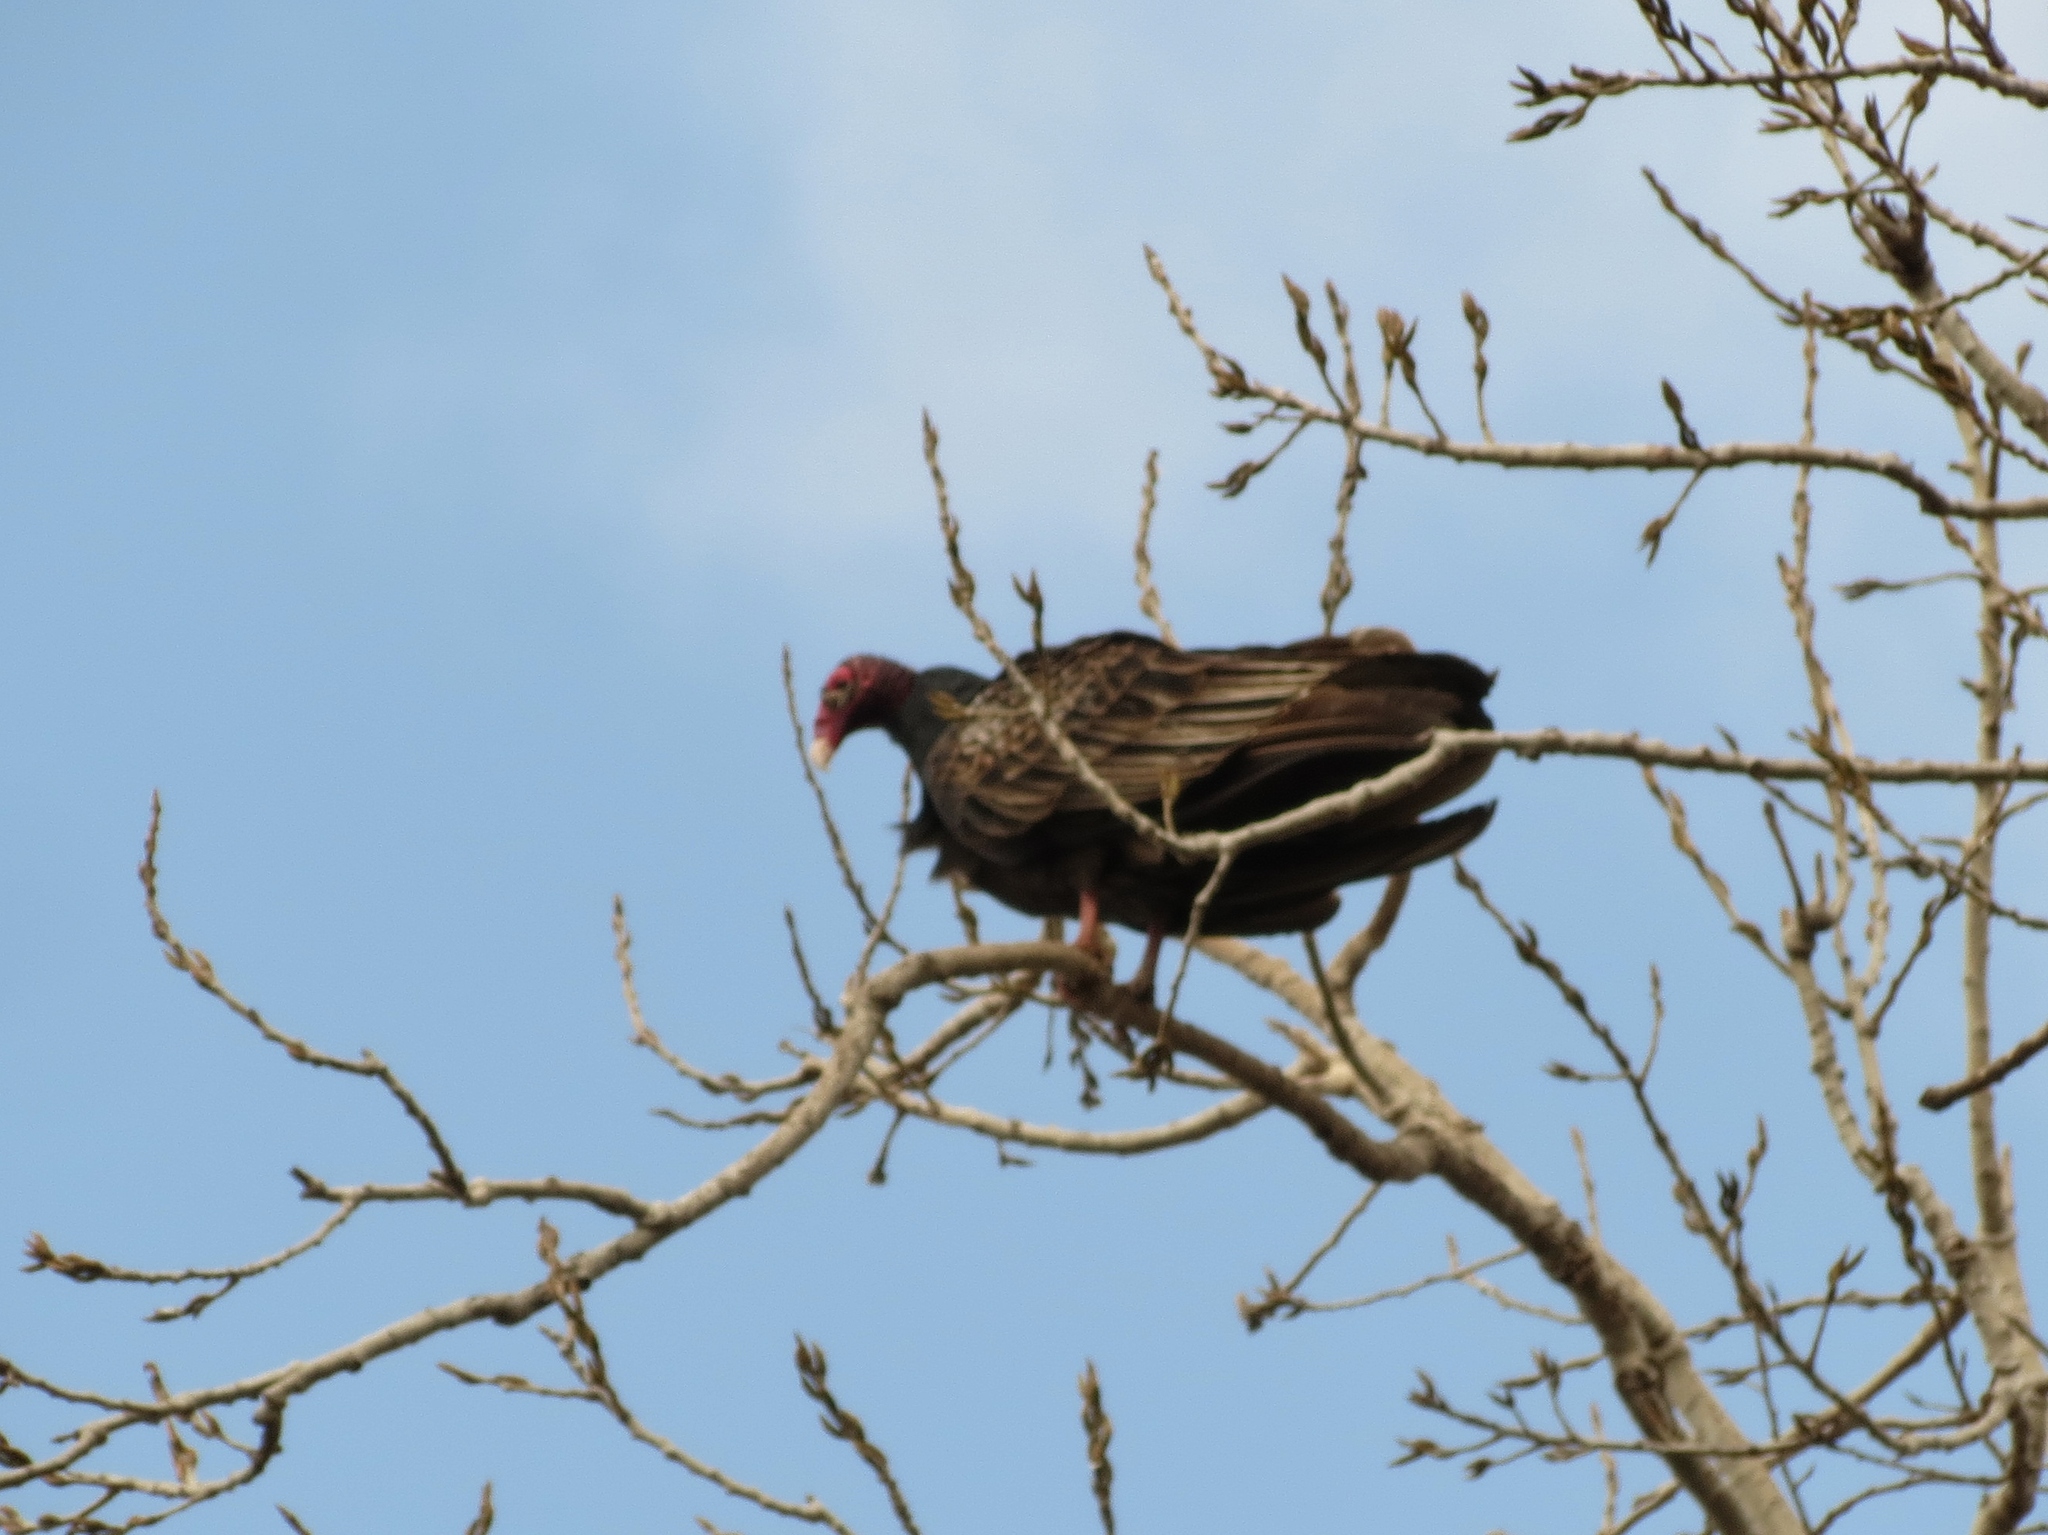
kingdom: Animalia
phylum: Chordata
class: Aves
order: Accipitriformes
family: Cathartidae
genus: Cathartes
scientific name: Cathartes aura
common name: Turkey vulture
